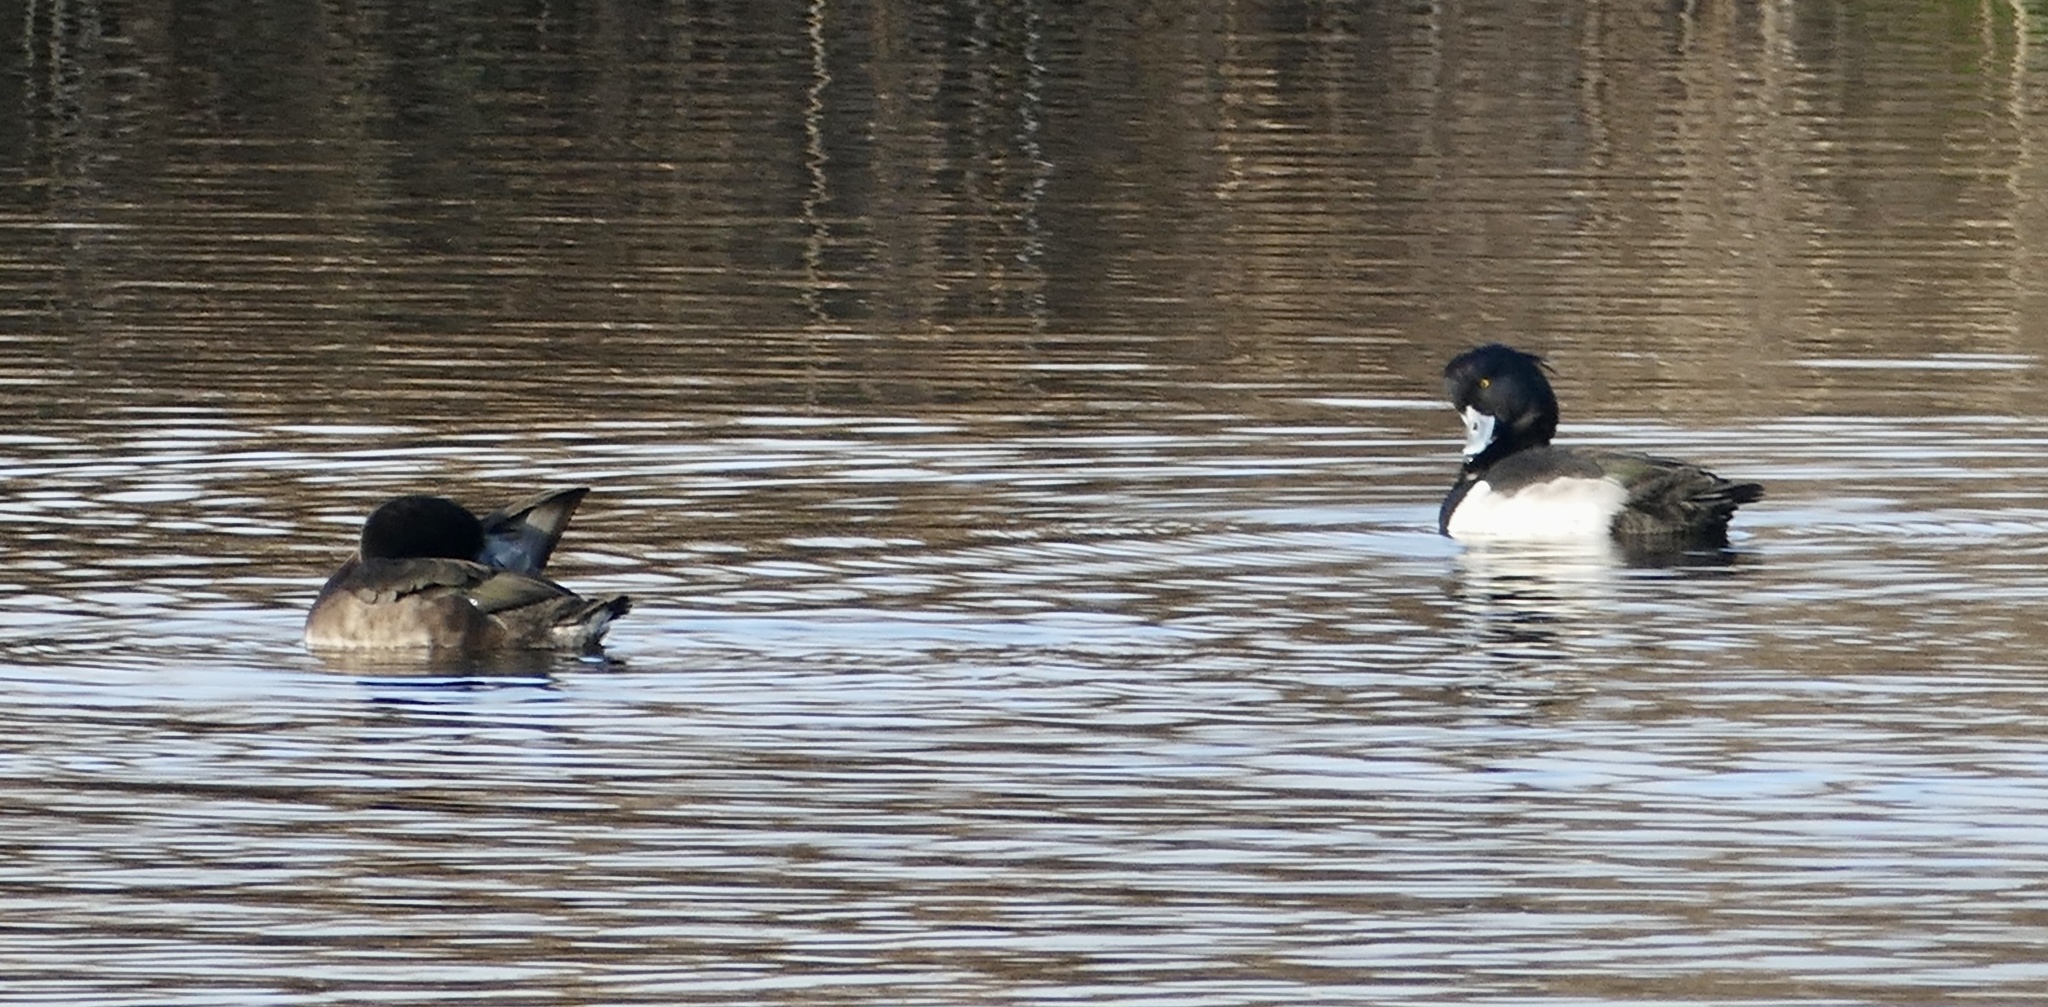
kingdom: Animalia
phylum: Chordata
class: Aves
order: Anseriformes
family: Anatidae
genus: Aythya
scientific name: Aythya fuligula
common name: Tufted duck
